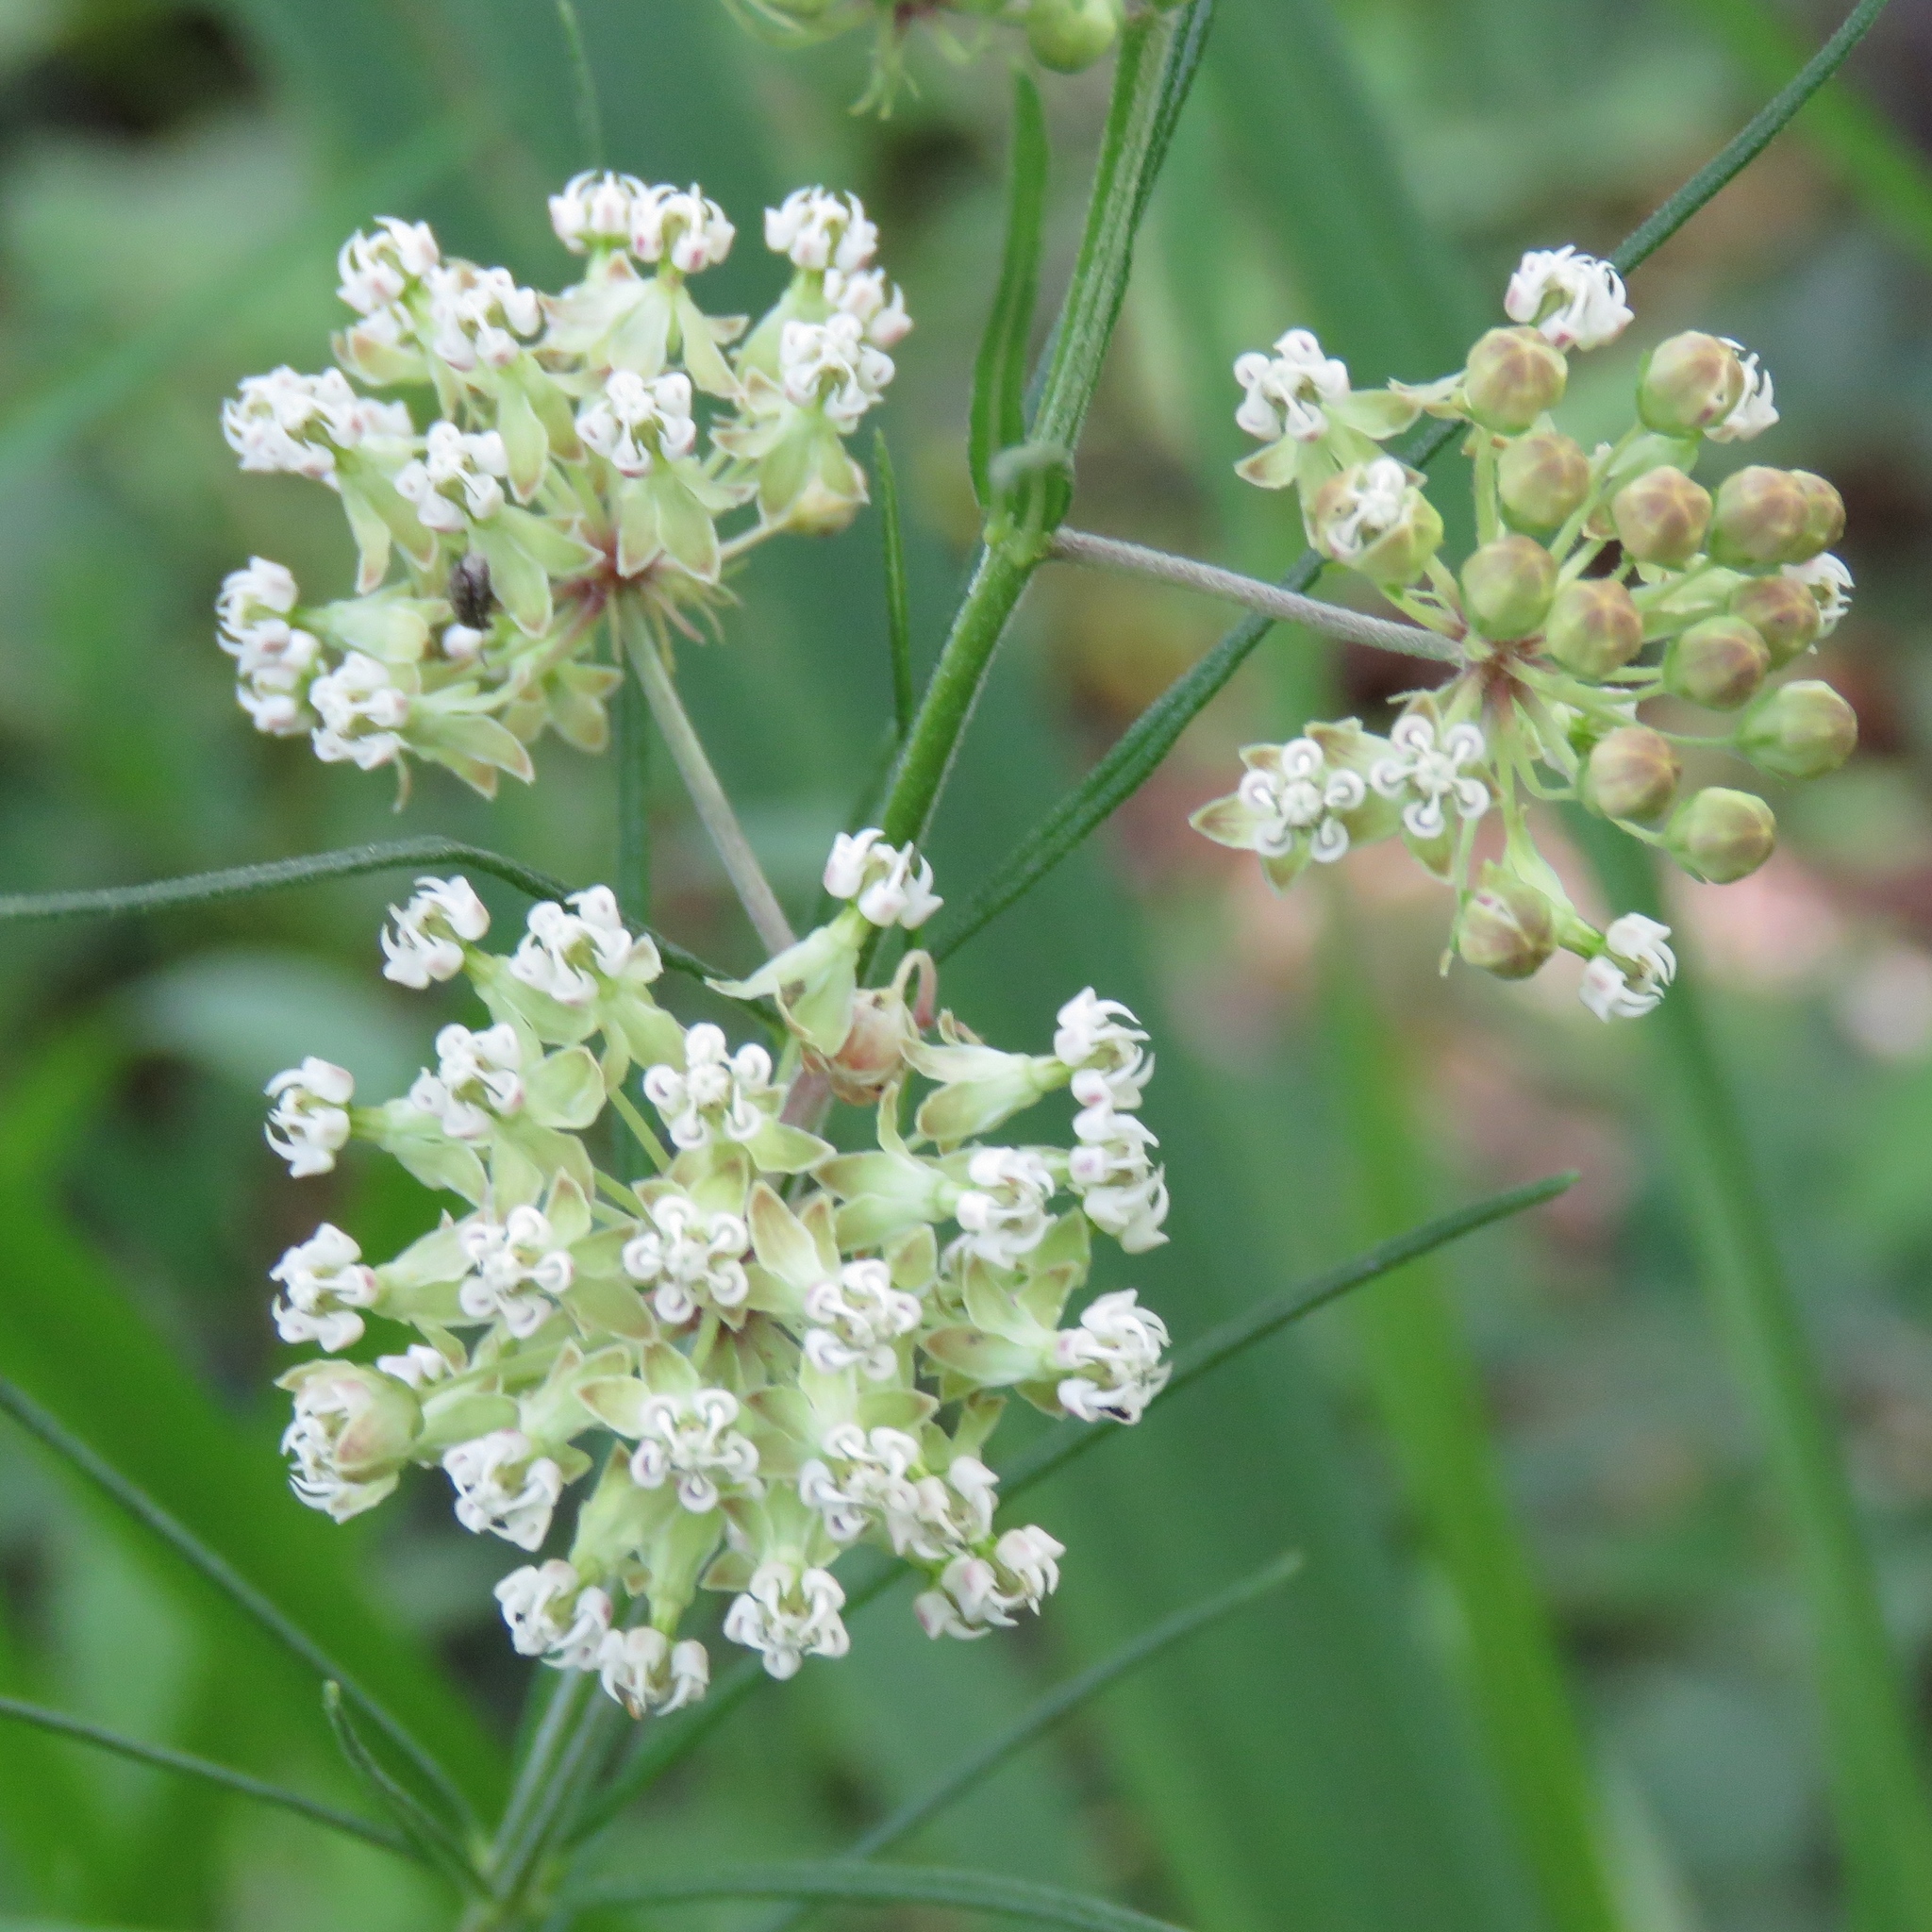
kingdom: Plantae
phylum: Tracheophyta
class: Magnoliopsida
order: Gentianales
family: Apocynaceae
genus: Asclepias
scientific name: Asclepias verticillata
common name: Eastern whorled milkweed
